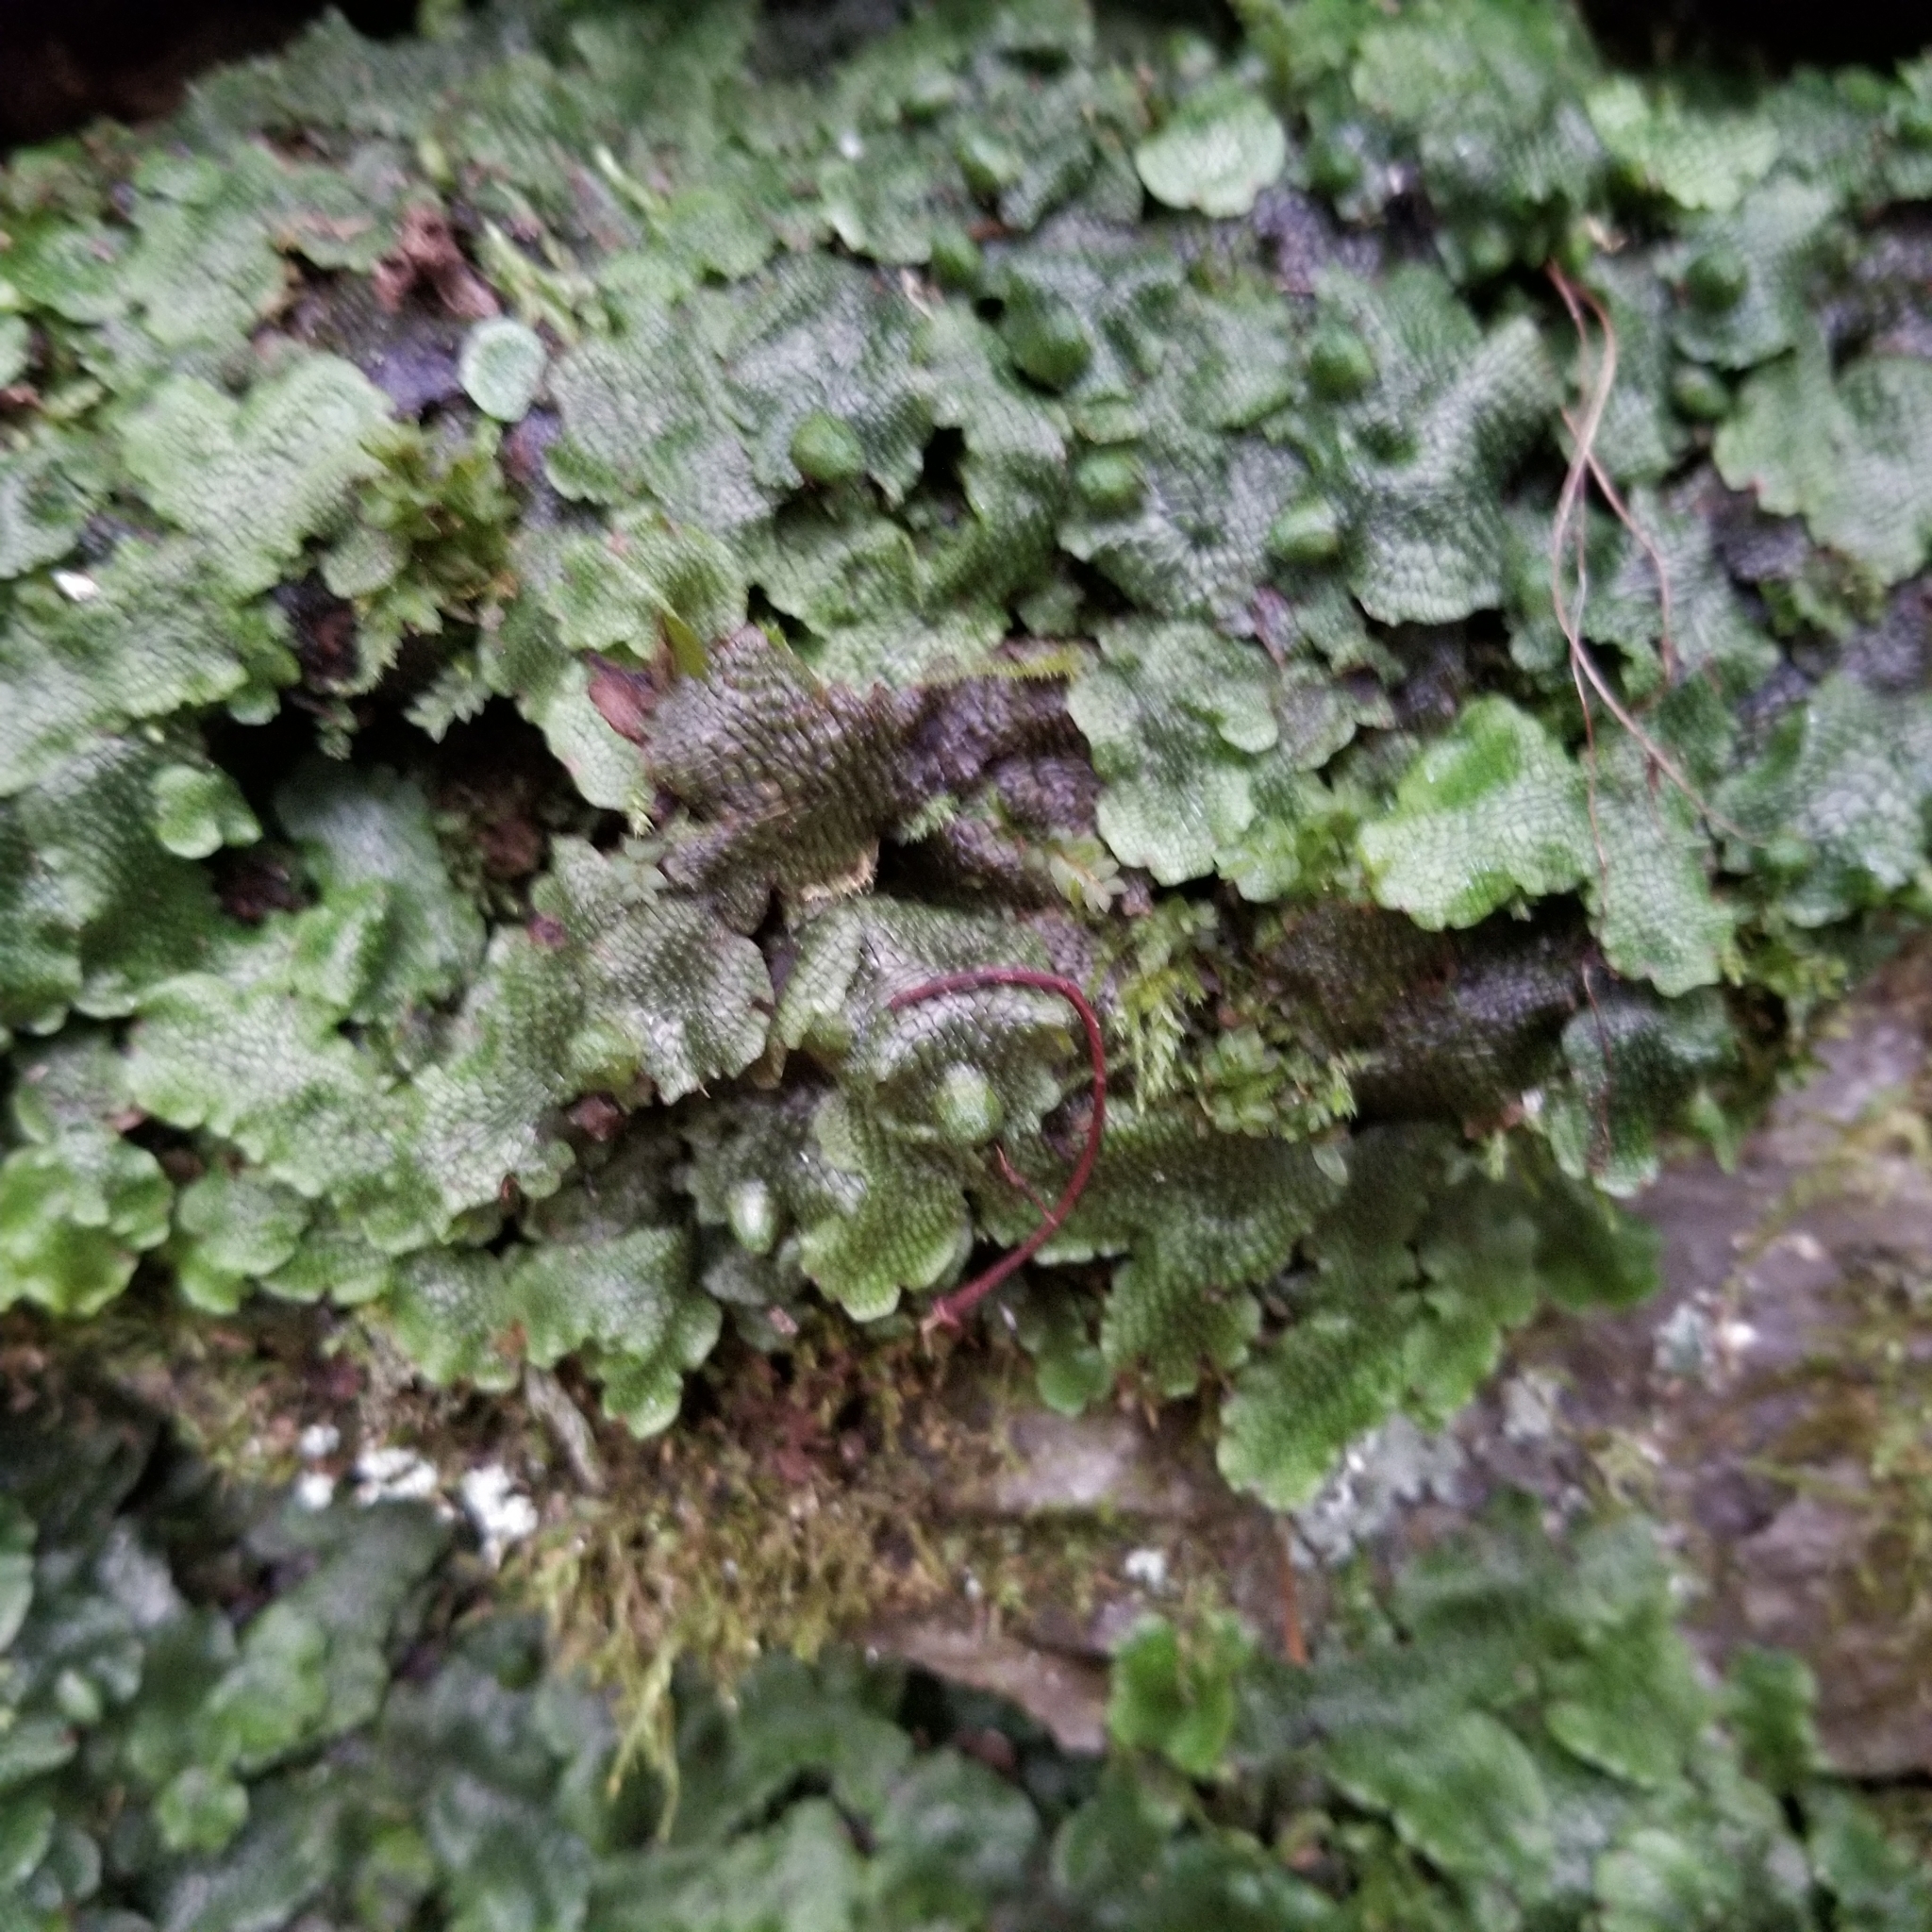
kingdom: Plantae
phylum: Marchantiophyta
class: Marchantiopsida
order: Marchantiales
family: Conocephalaceae
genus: Conocephalum
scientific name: Conocephalum salebrosum
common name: Cat-tongue liverwort
